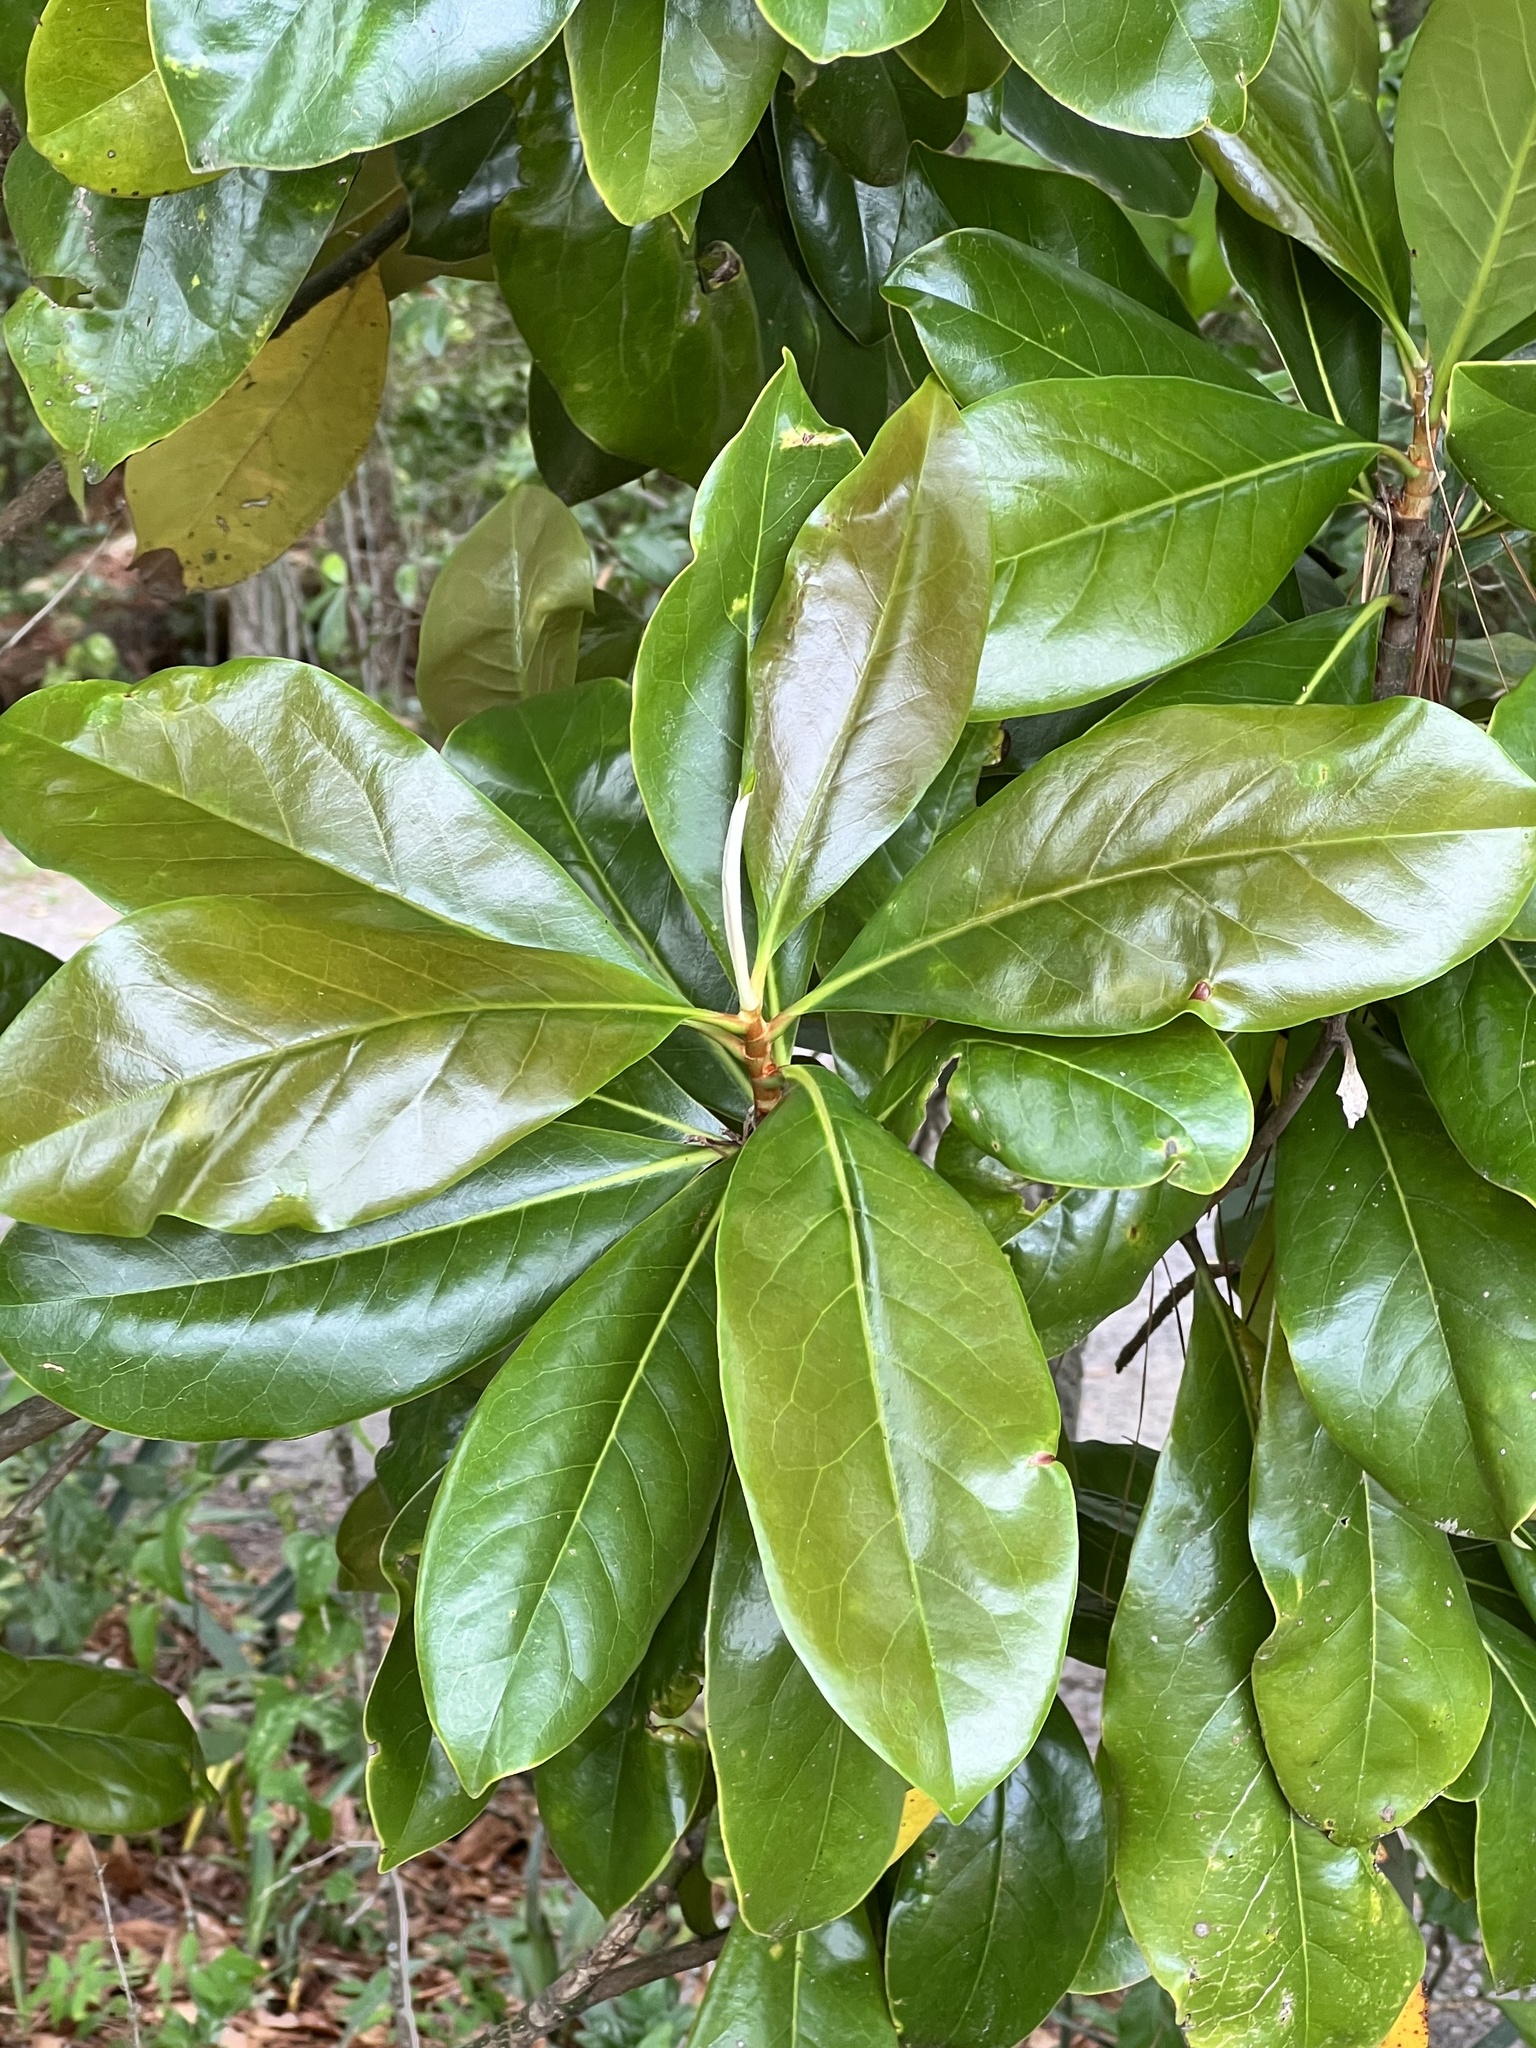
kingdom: Plantae
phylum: Tracheophyta
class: Magnoliopsida
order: Magnoliales
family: Magnoliaceae
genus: Magnolia
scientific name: Magnolia grandiflora
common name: Southern magnolia
